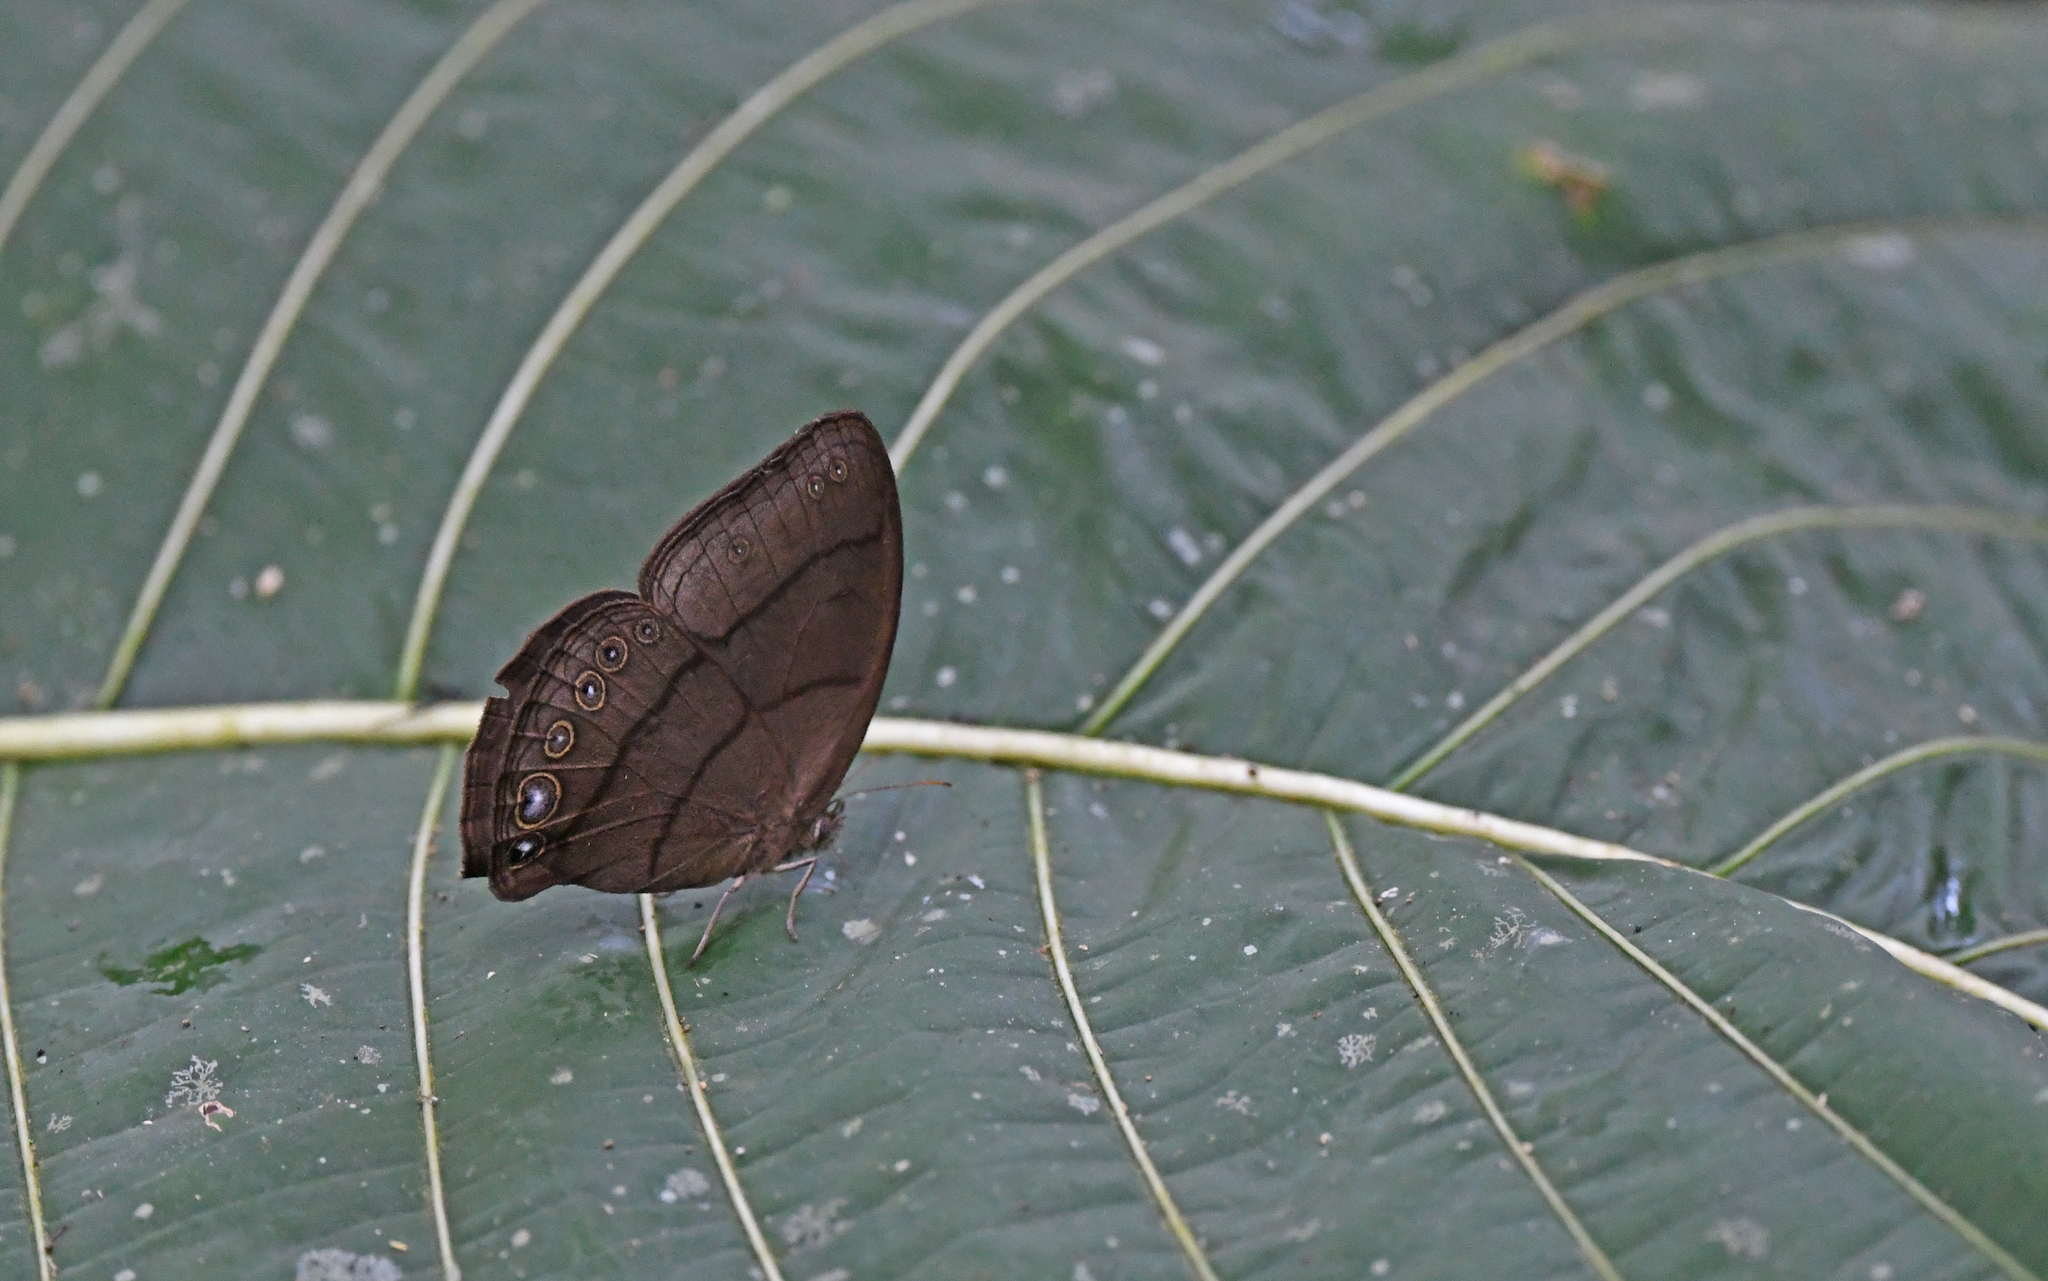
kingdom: Animalia
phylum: Arthropoda
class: Insecta
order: Lepidoptera
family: Nymphalidae
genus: Erichthodes
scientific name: Erichthodes erichtho
